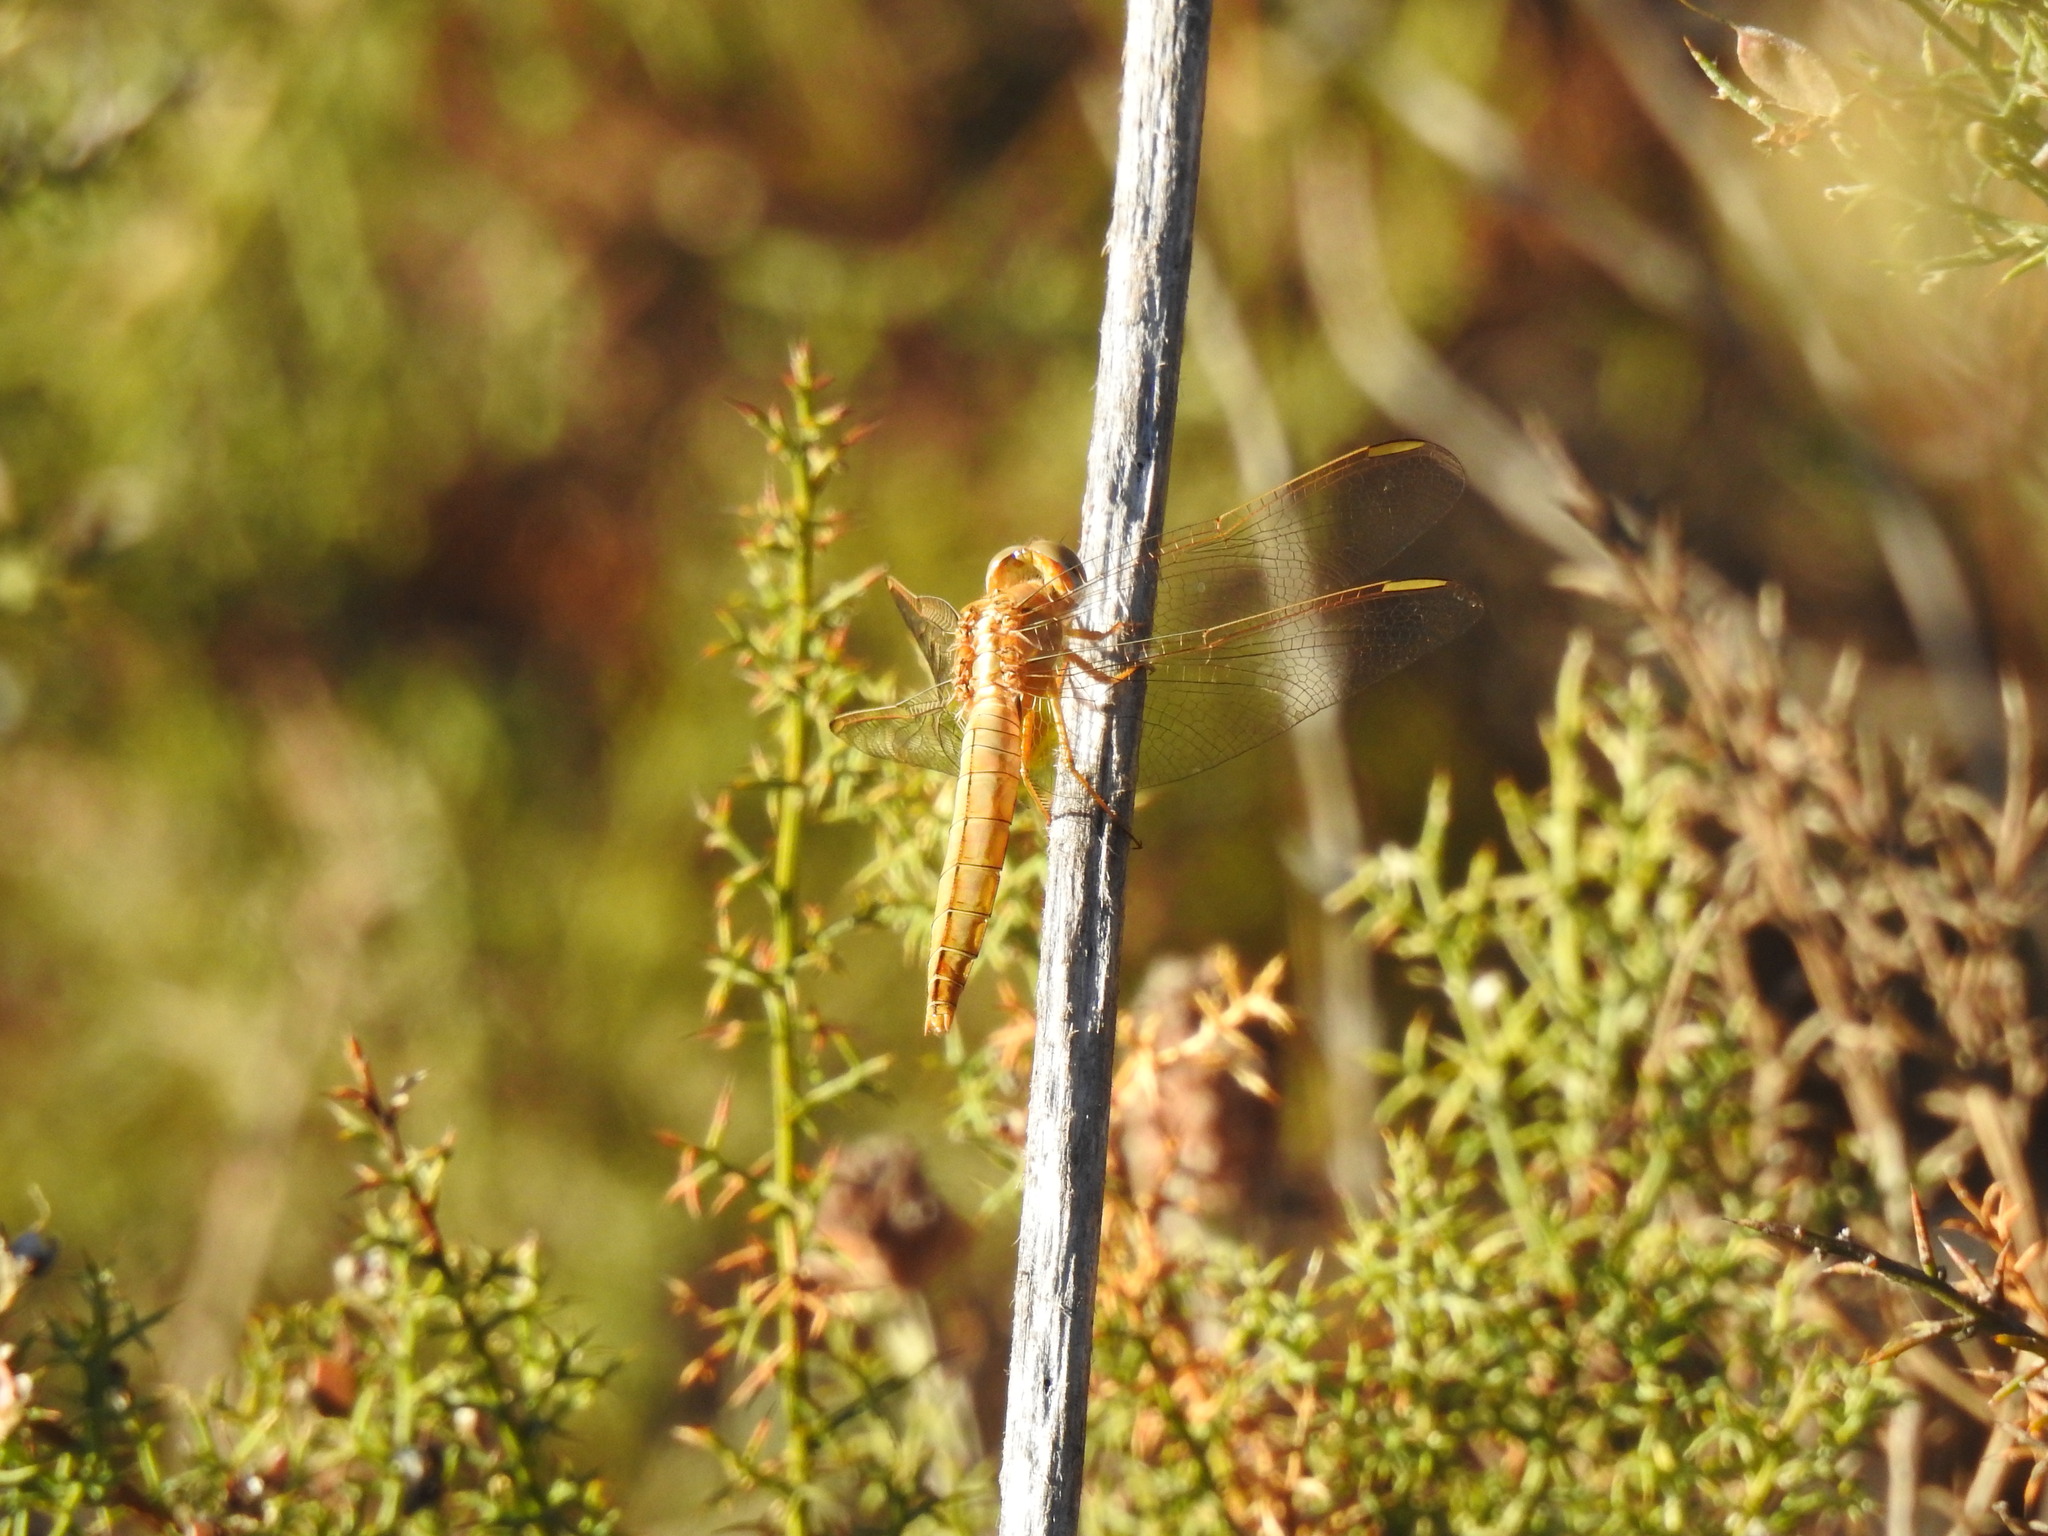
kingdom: Animalia
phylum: Arthropoda
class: Insecta
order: Odonata
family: Libellulidae
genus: Crocothemis
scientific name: Crocothemis erythraea
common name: Scarlet dragonfly
